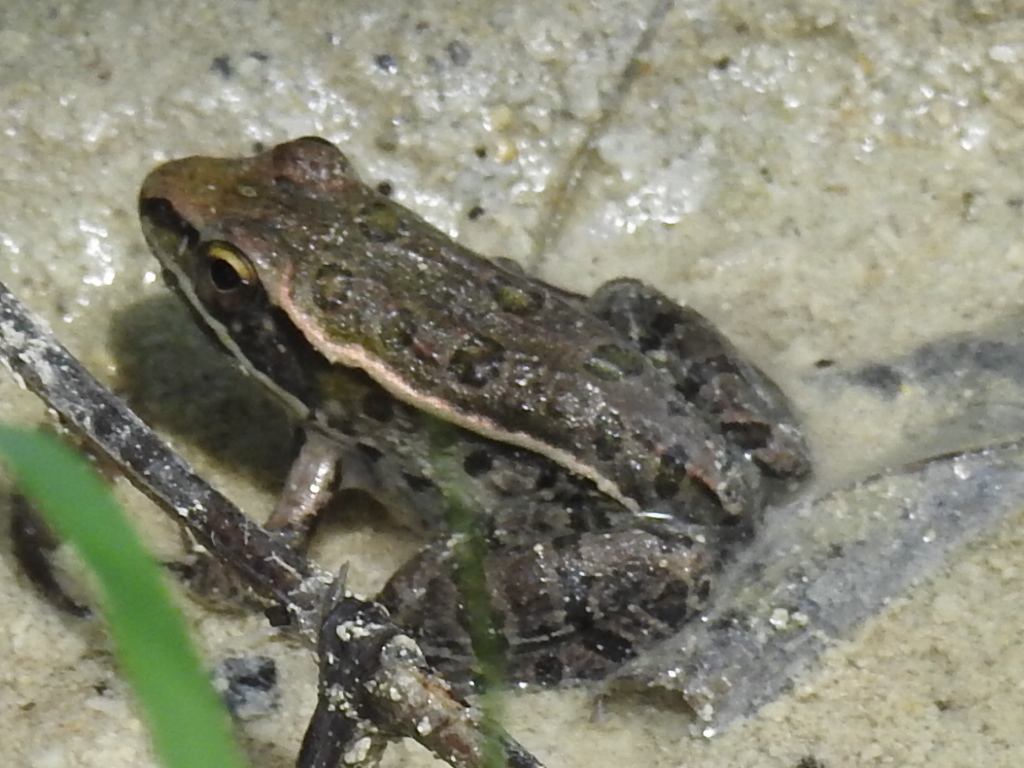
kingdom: Animalia
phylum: Chordata
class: Amphibia
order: Anura
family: Ranidae
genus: Lithobates
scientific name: Lithobates sphenocephalus
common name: Southern leopard frog
